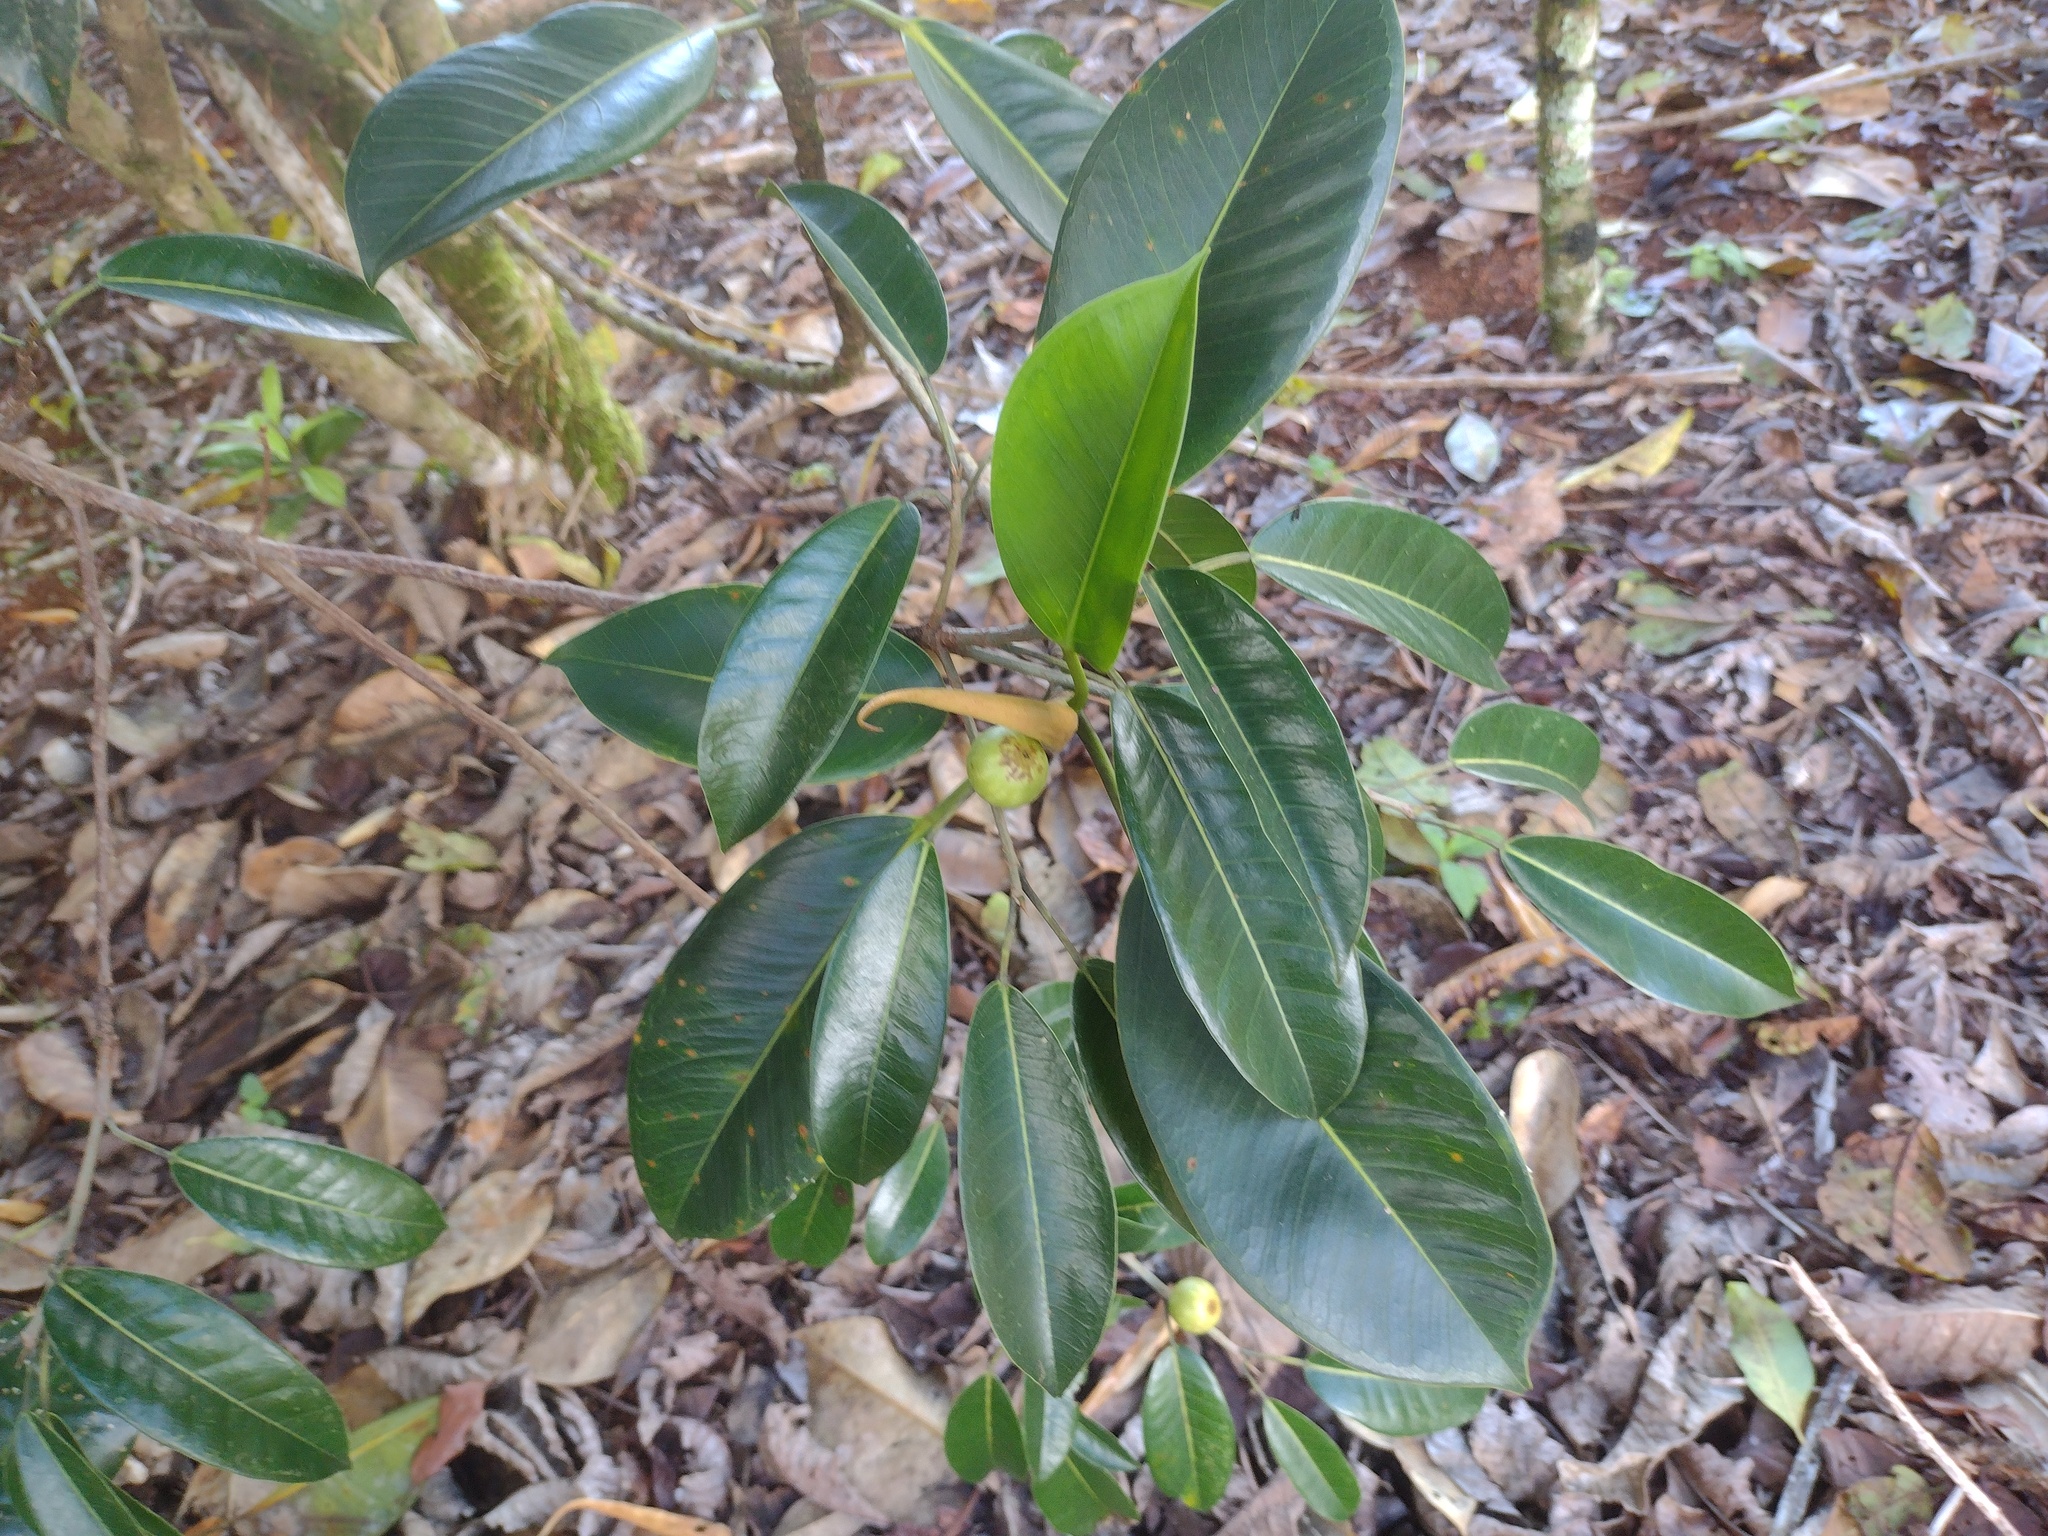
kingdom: Plantae
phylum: Tracheophyta
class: Magnoliopsida
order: Rosales
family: Moraceae
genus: Ficus
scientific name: Ficus congesta
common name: Cluster fig
